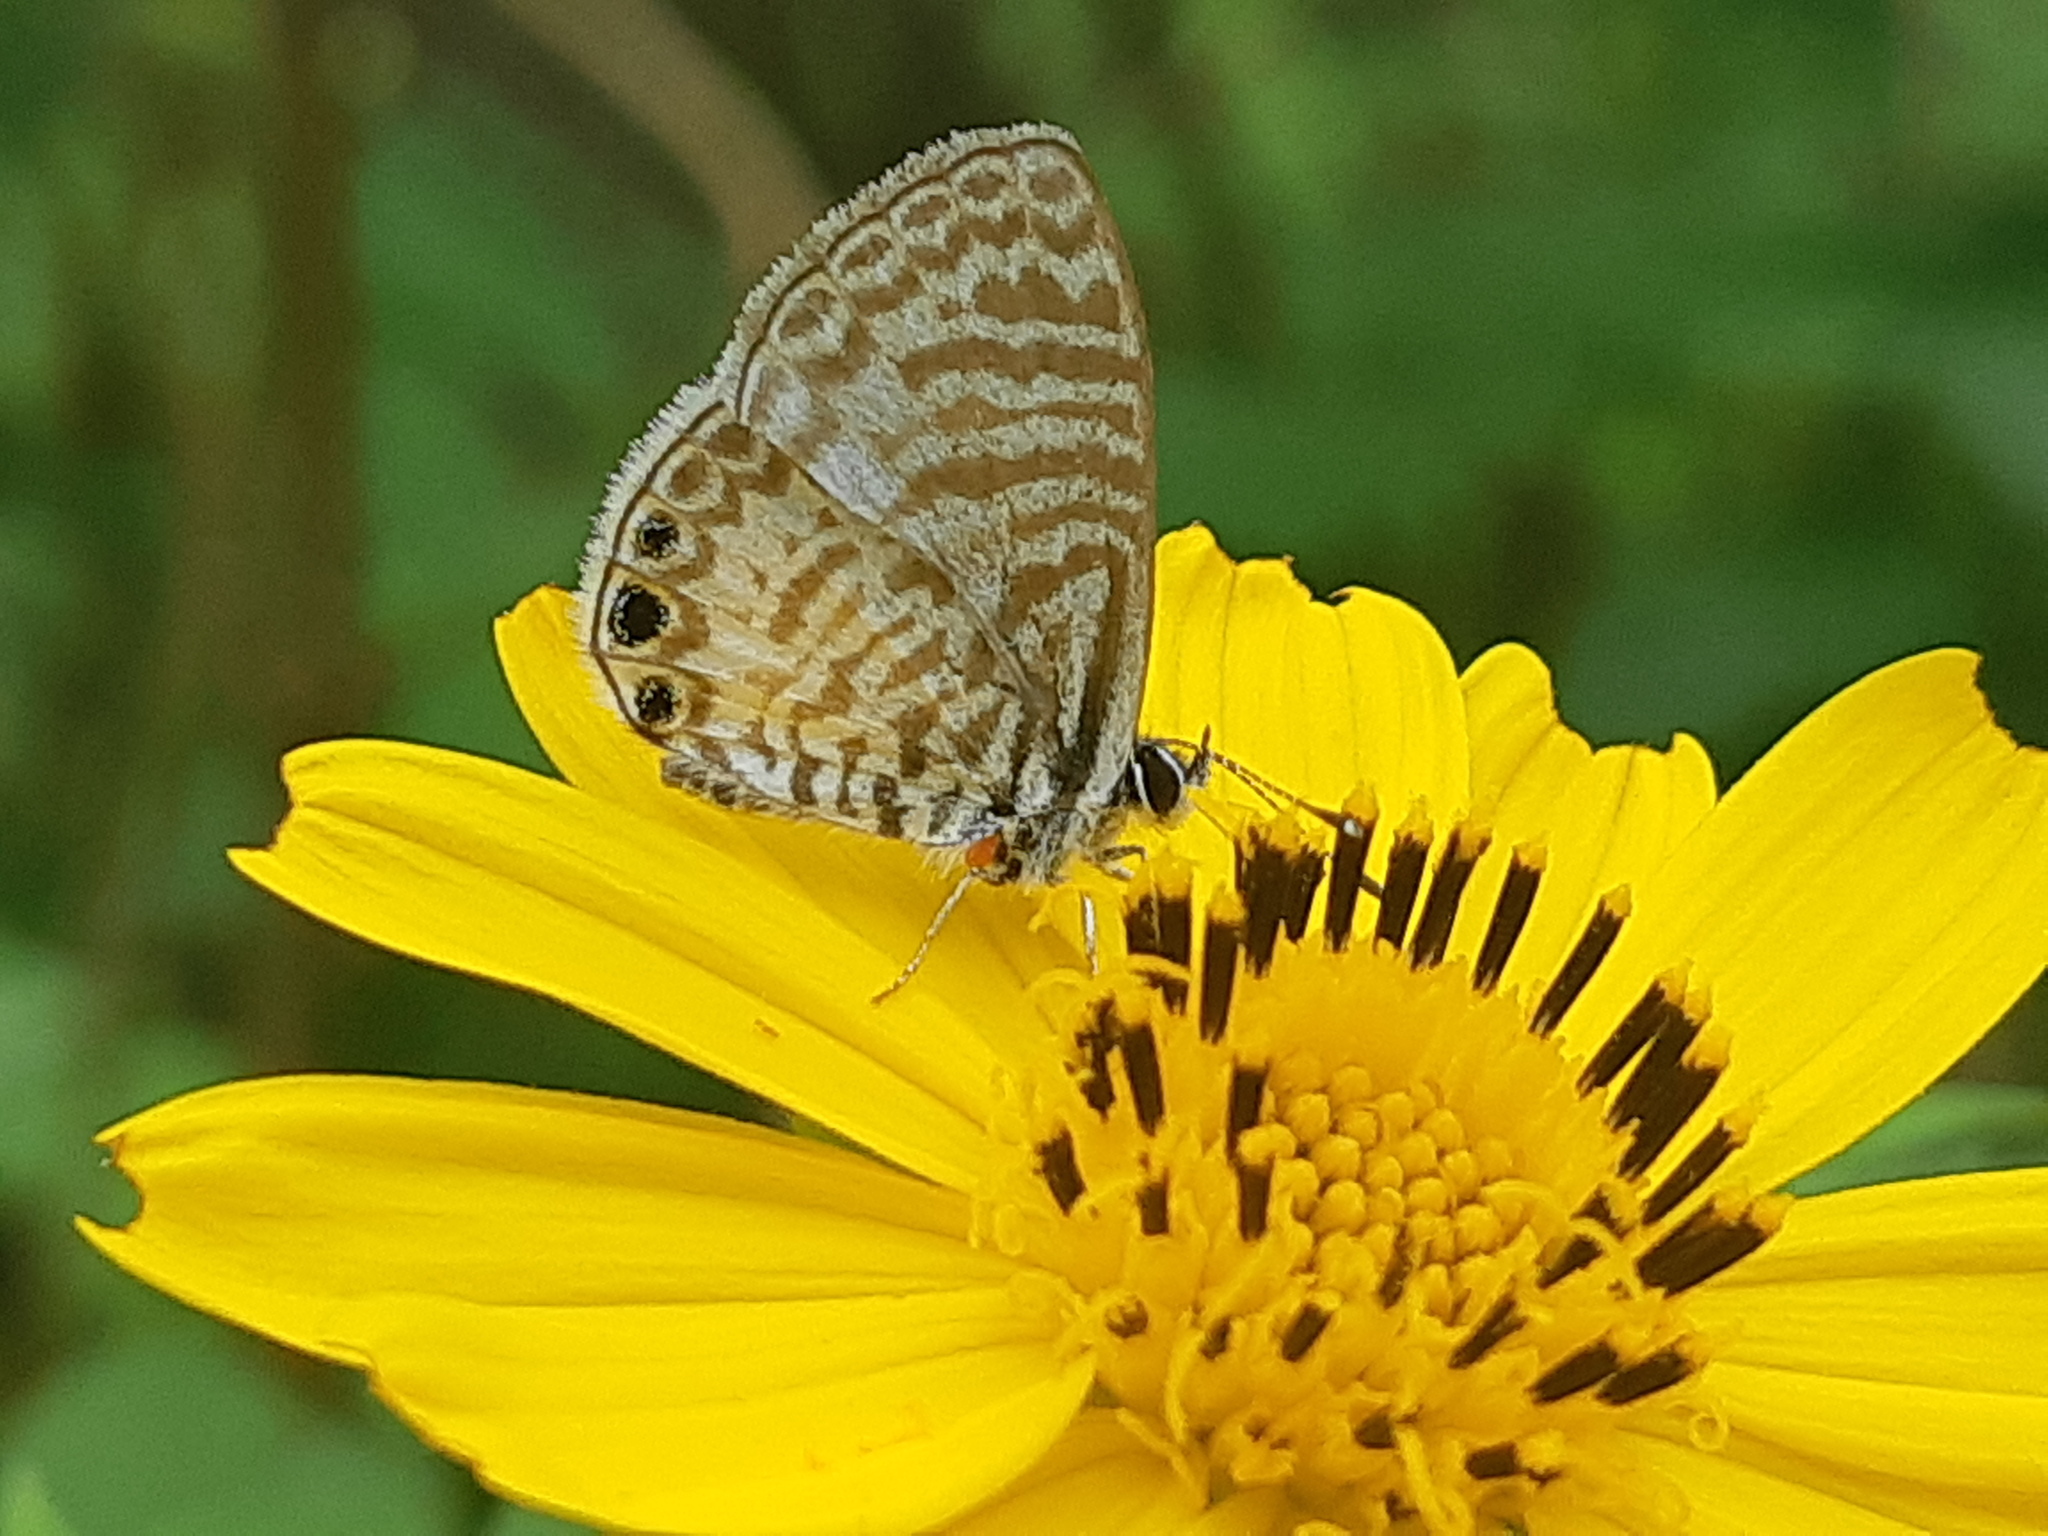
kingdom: Animalia
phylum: Arthropoda
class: Insecta
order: Lepidoptera
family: Lycaenidae
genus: Leptotes
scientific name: Leptotes cassius
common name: Cassius blue
